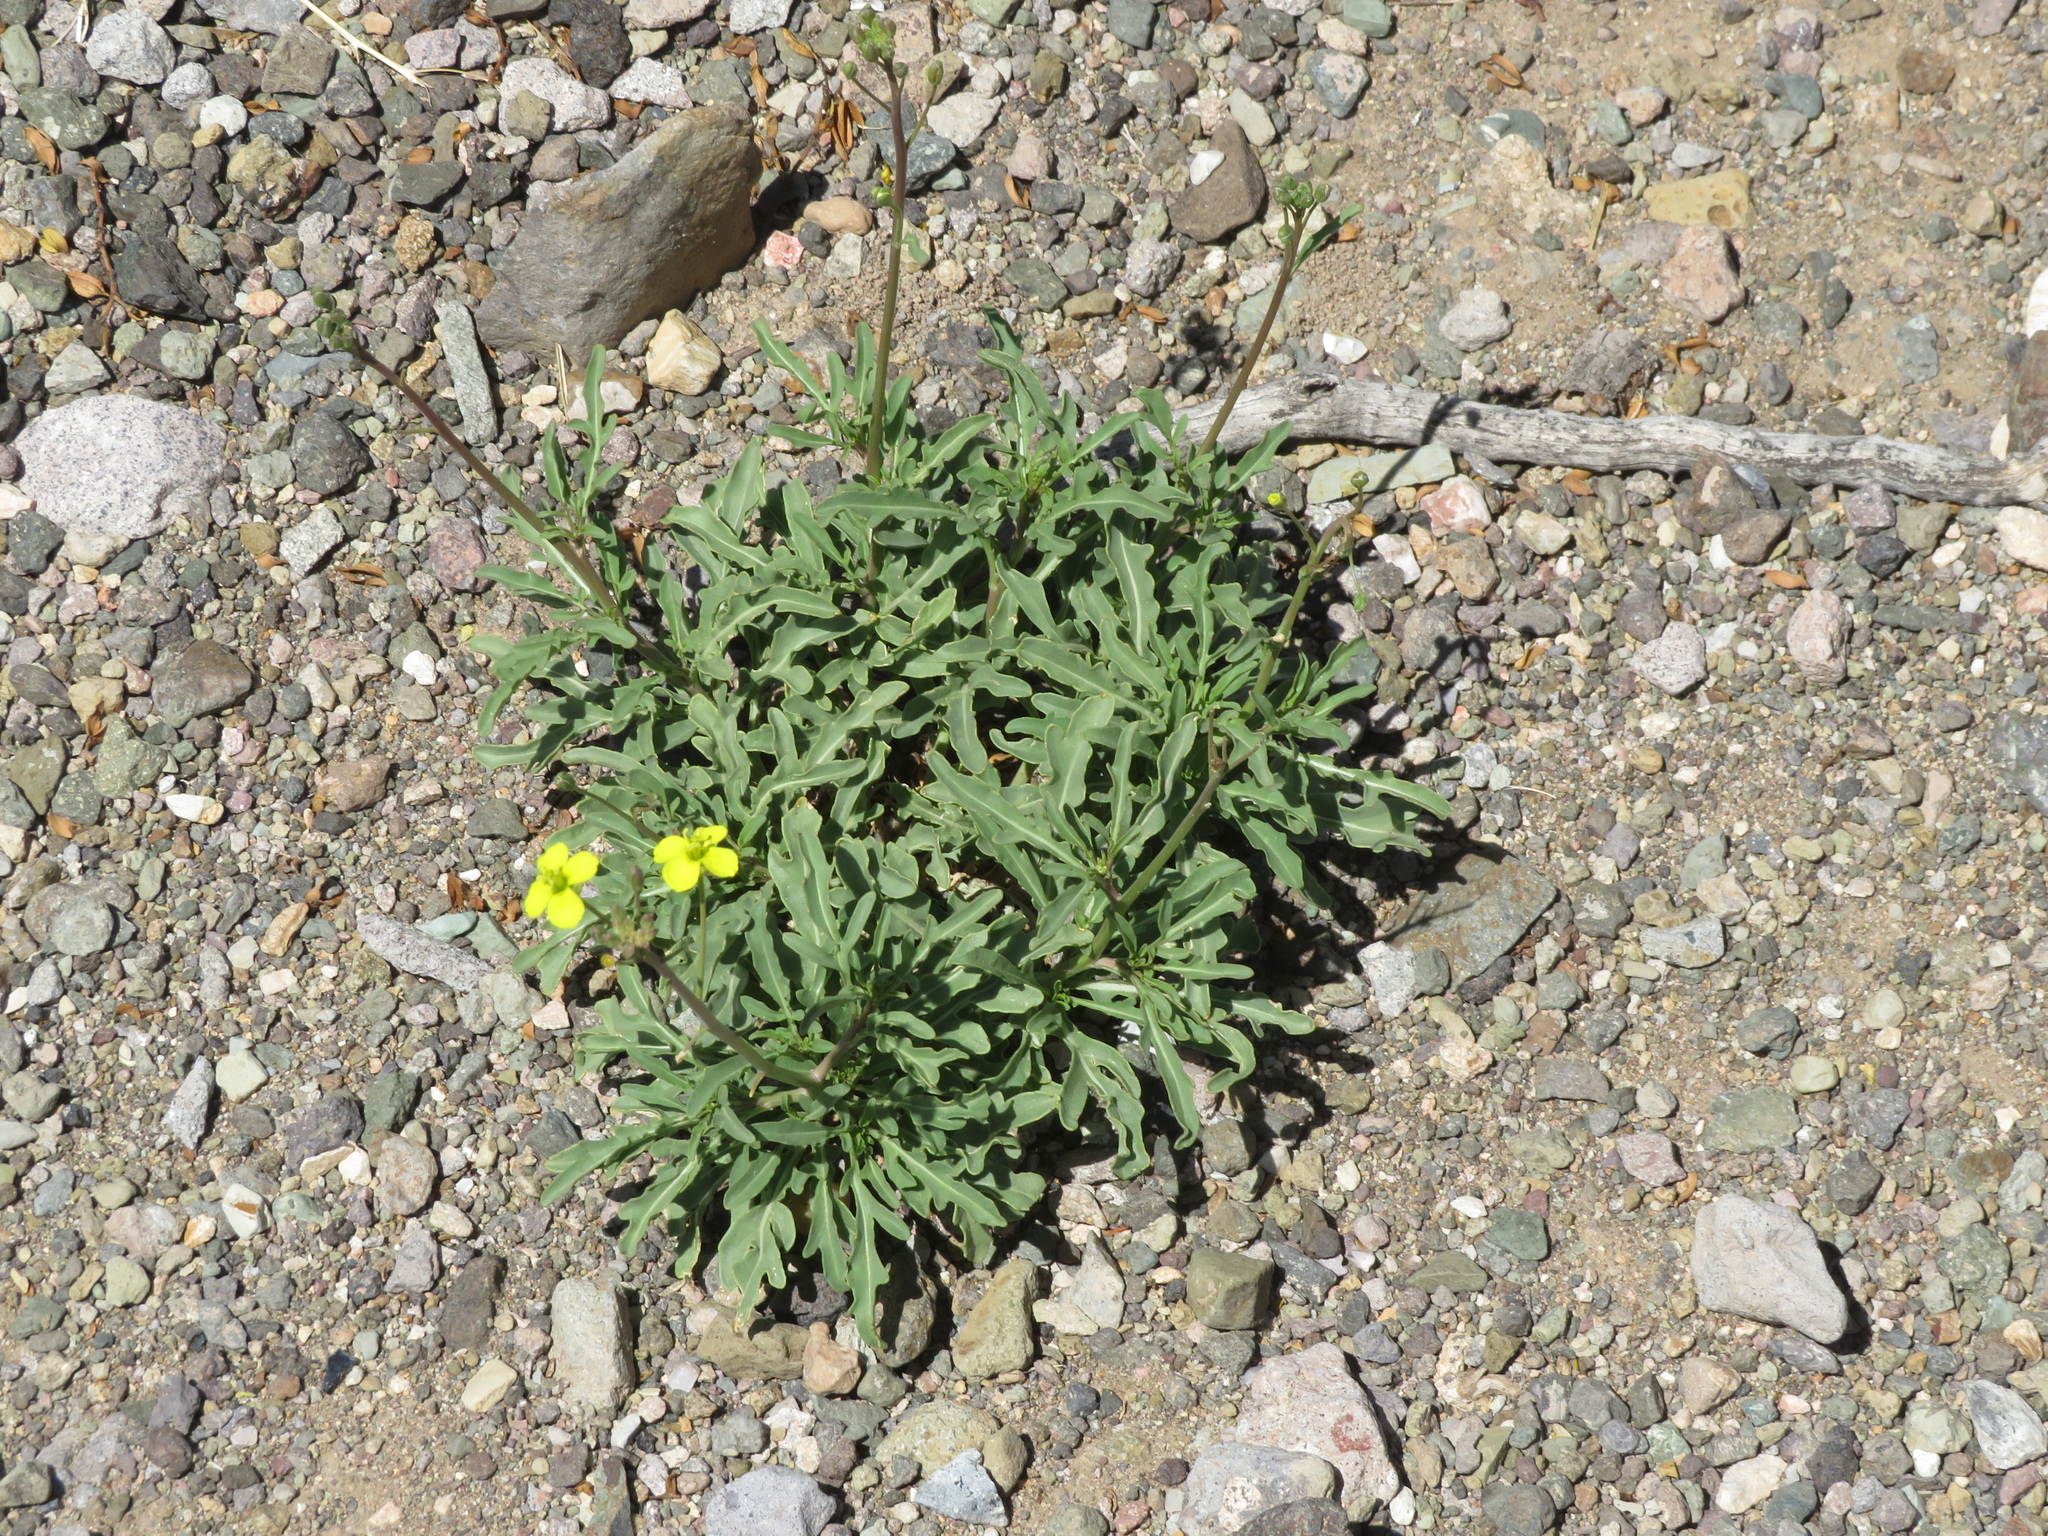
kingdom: Plantae
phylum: Tracheophyta
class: Magnoliopsida
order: Brassicales
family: Brassicaceae
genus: Diplotaxis
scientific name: Diplotaxis tenuifolia
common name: Perennial wall-rocket
